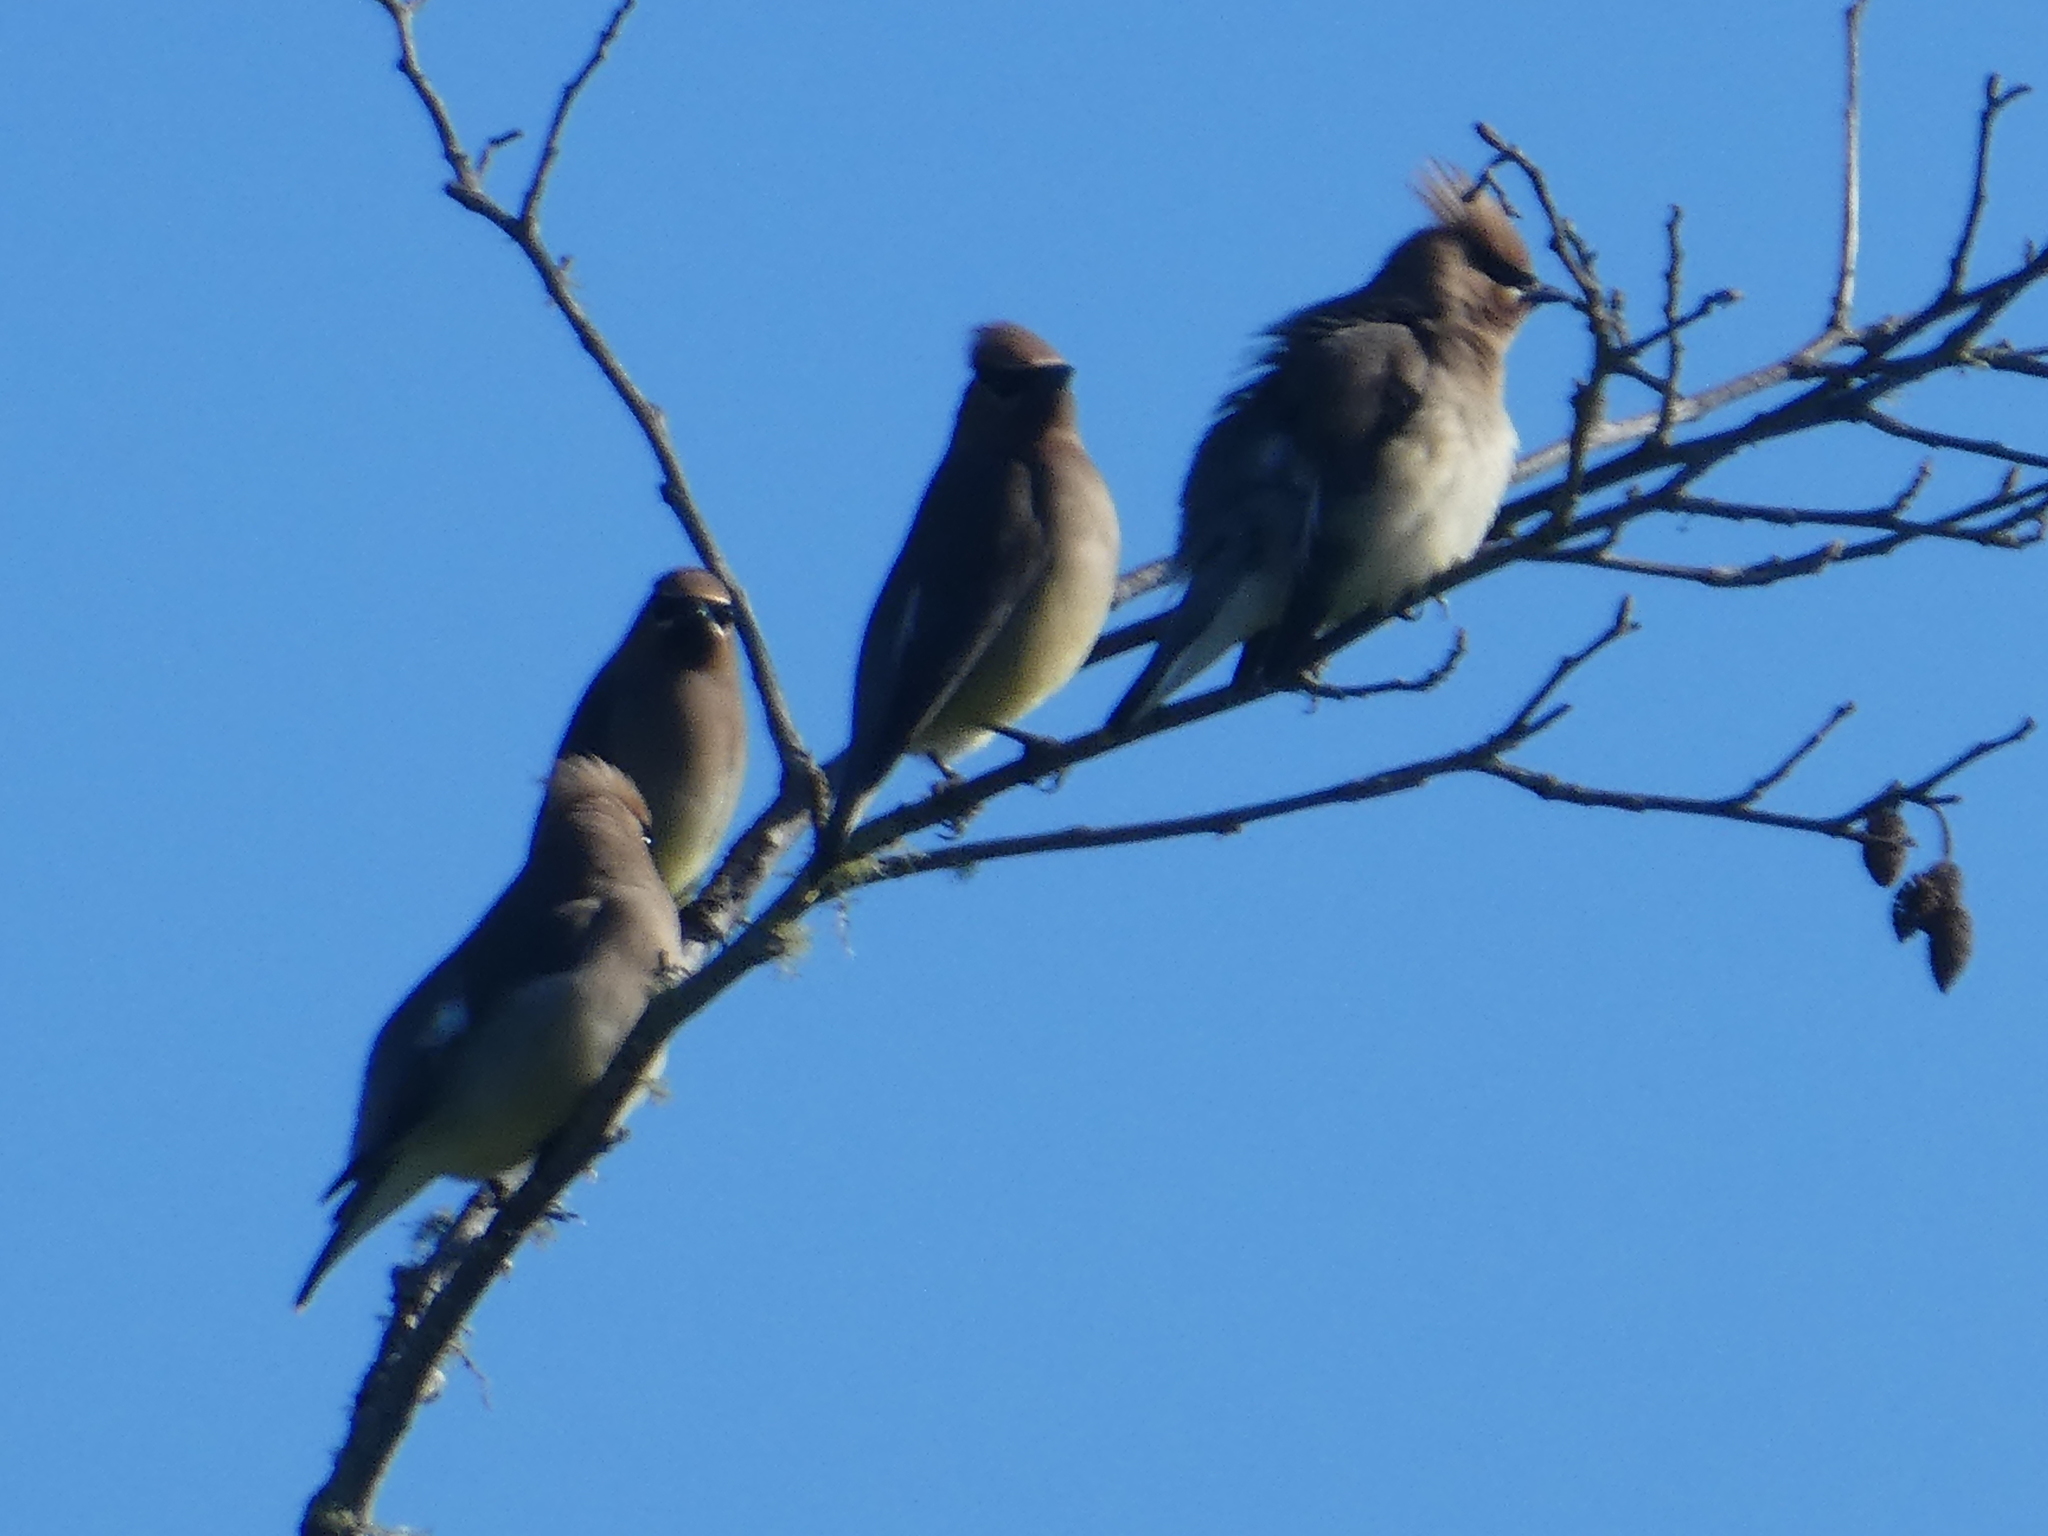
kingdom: Animalia
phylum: Chordata
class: Aves
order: Passeriformes
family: Bombycillidae
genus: Bombycilla
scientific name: Bombycilla cedrorum
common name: Cedar waxwing
